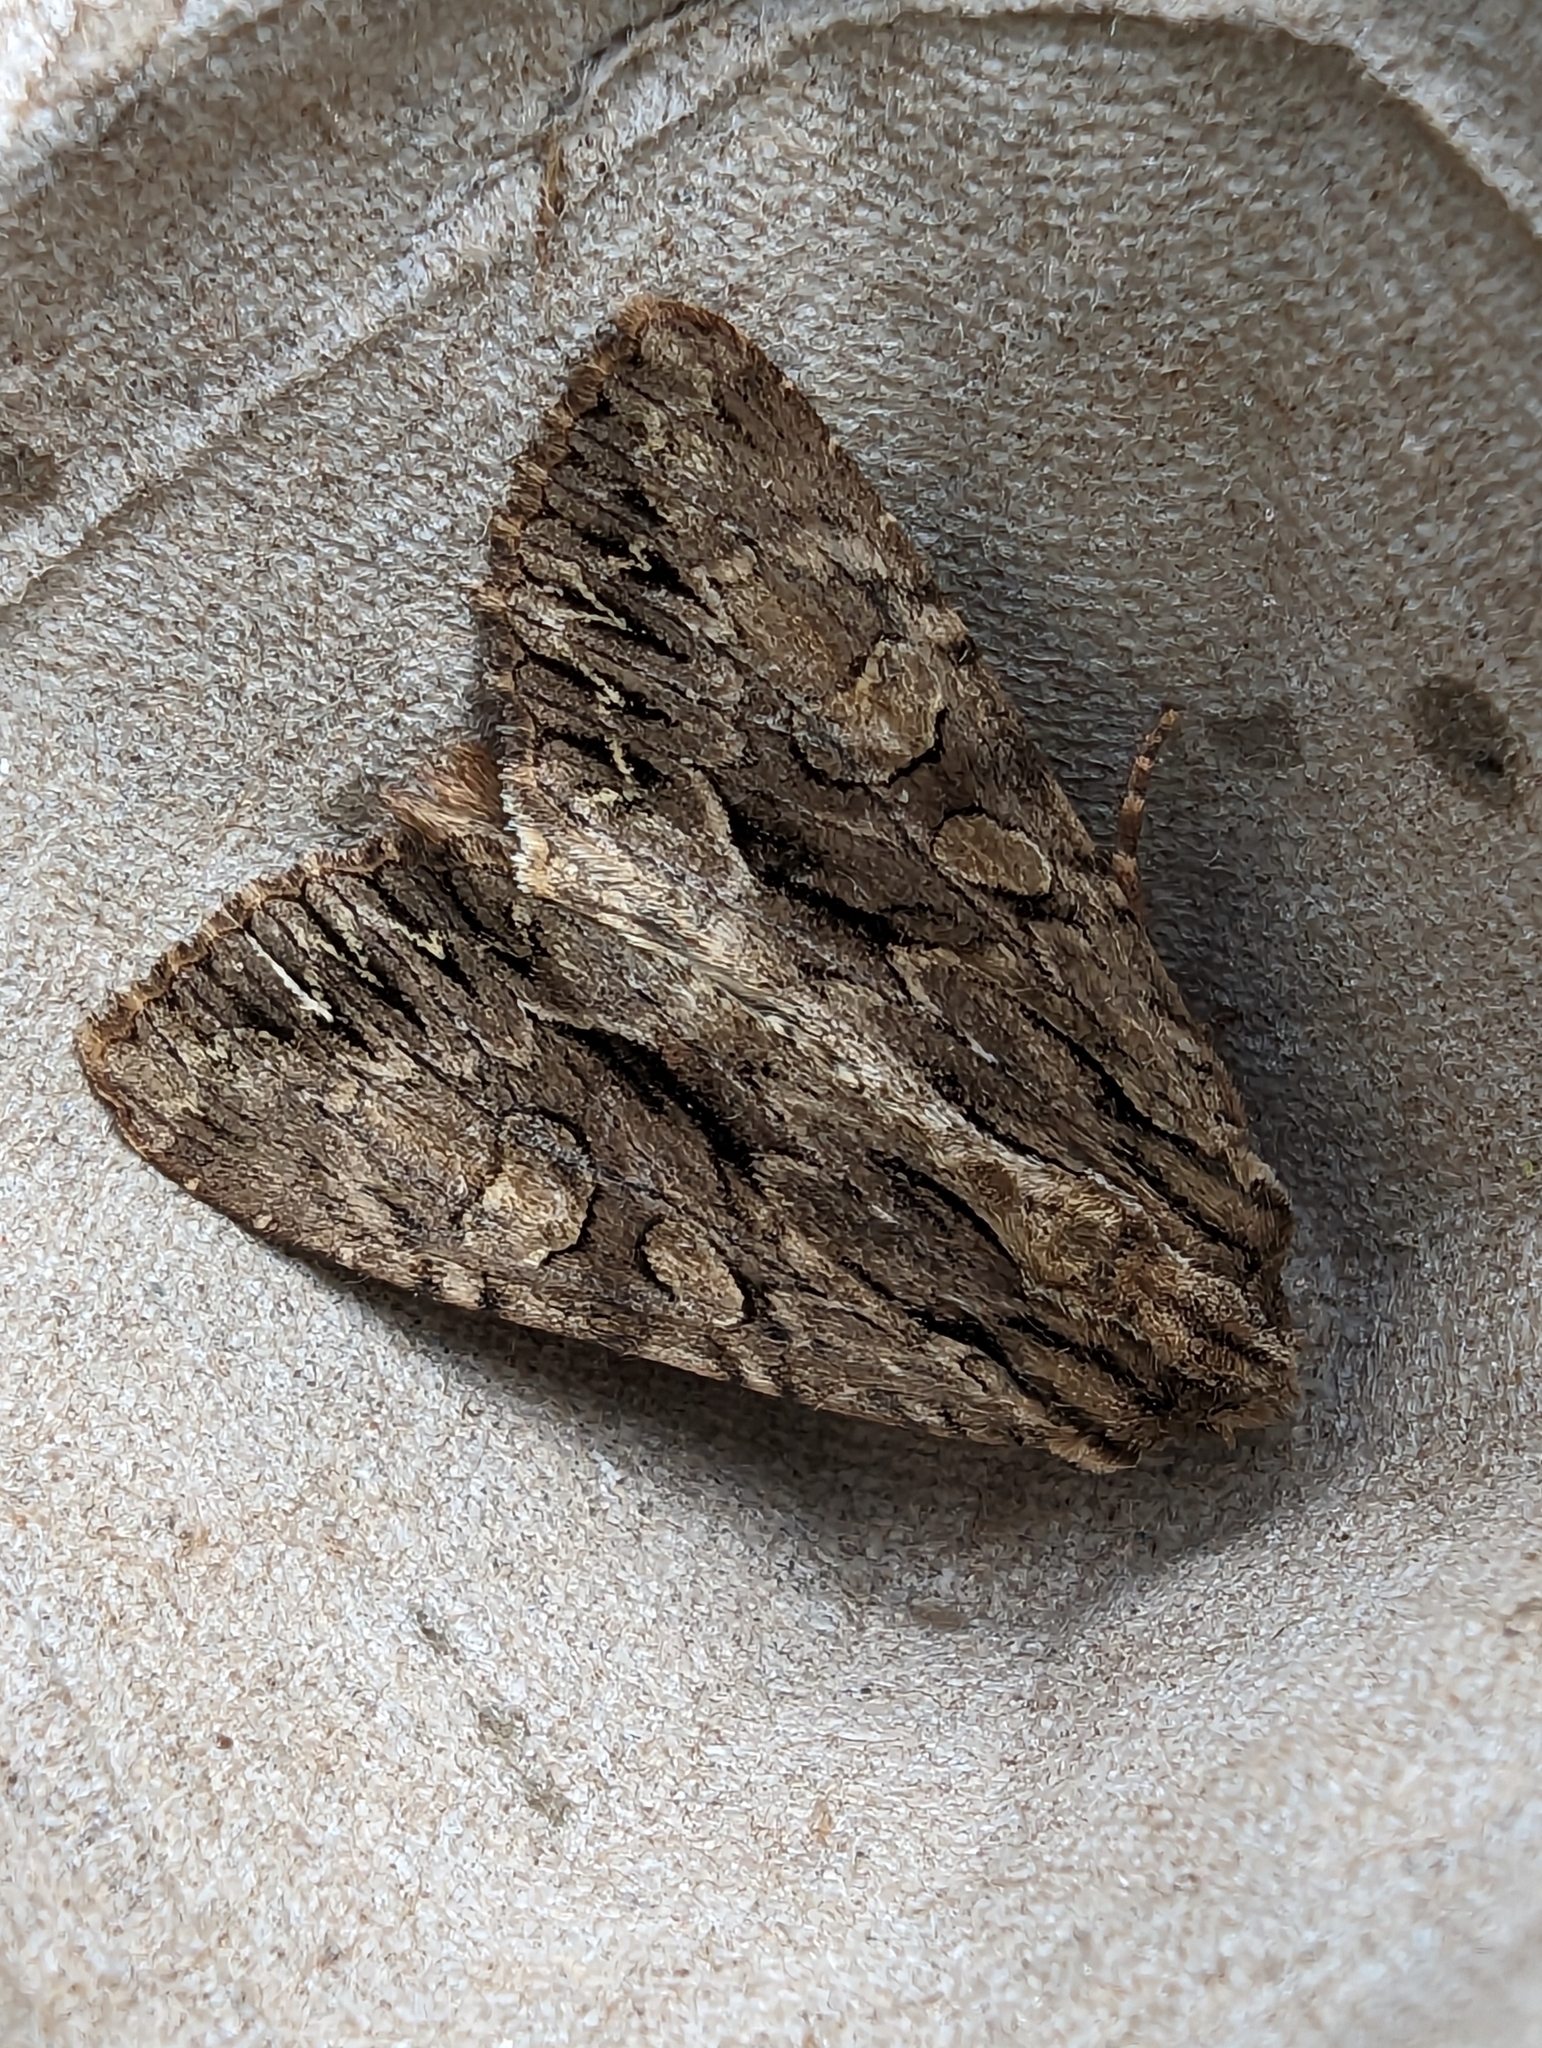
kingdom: Animalia
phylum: Arthropoda
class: Insecta
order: Lepidoptera
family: Noctuidae
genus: Apamea
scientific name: Apamea monoglypha
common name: Dark arches
